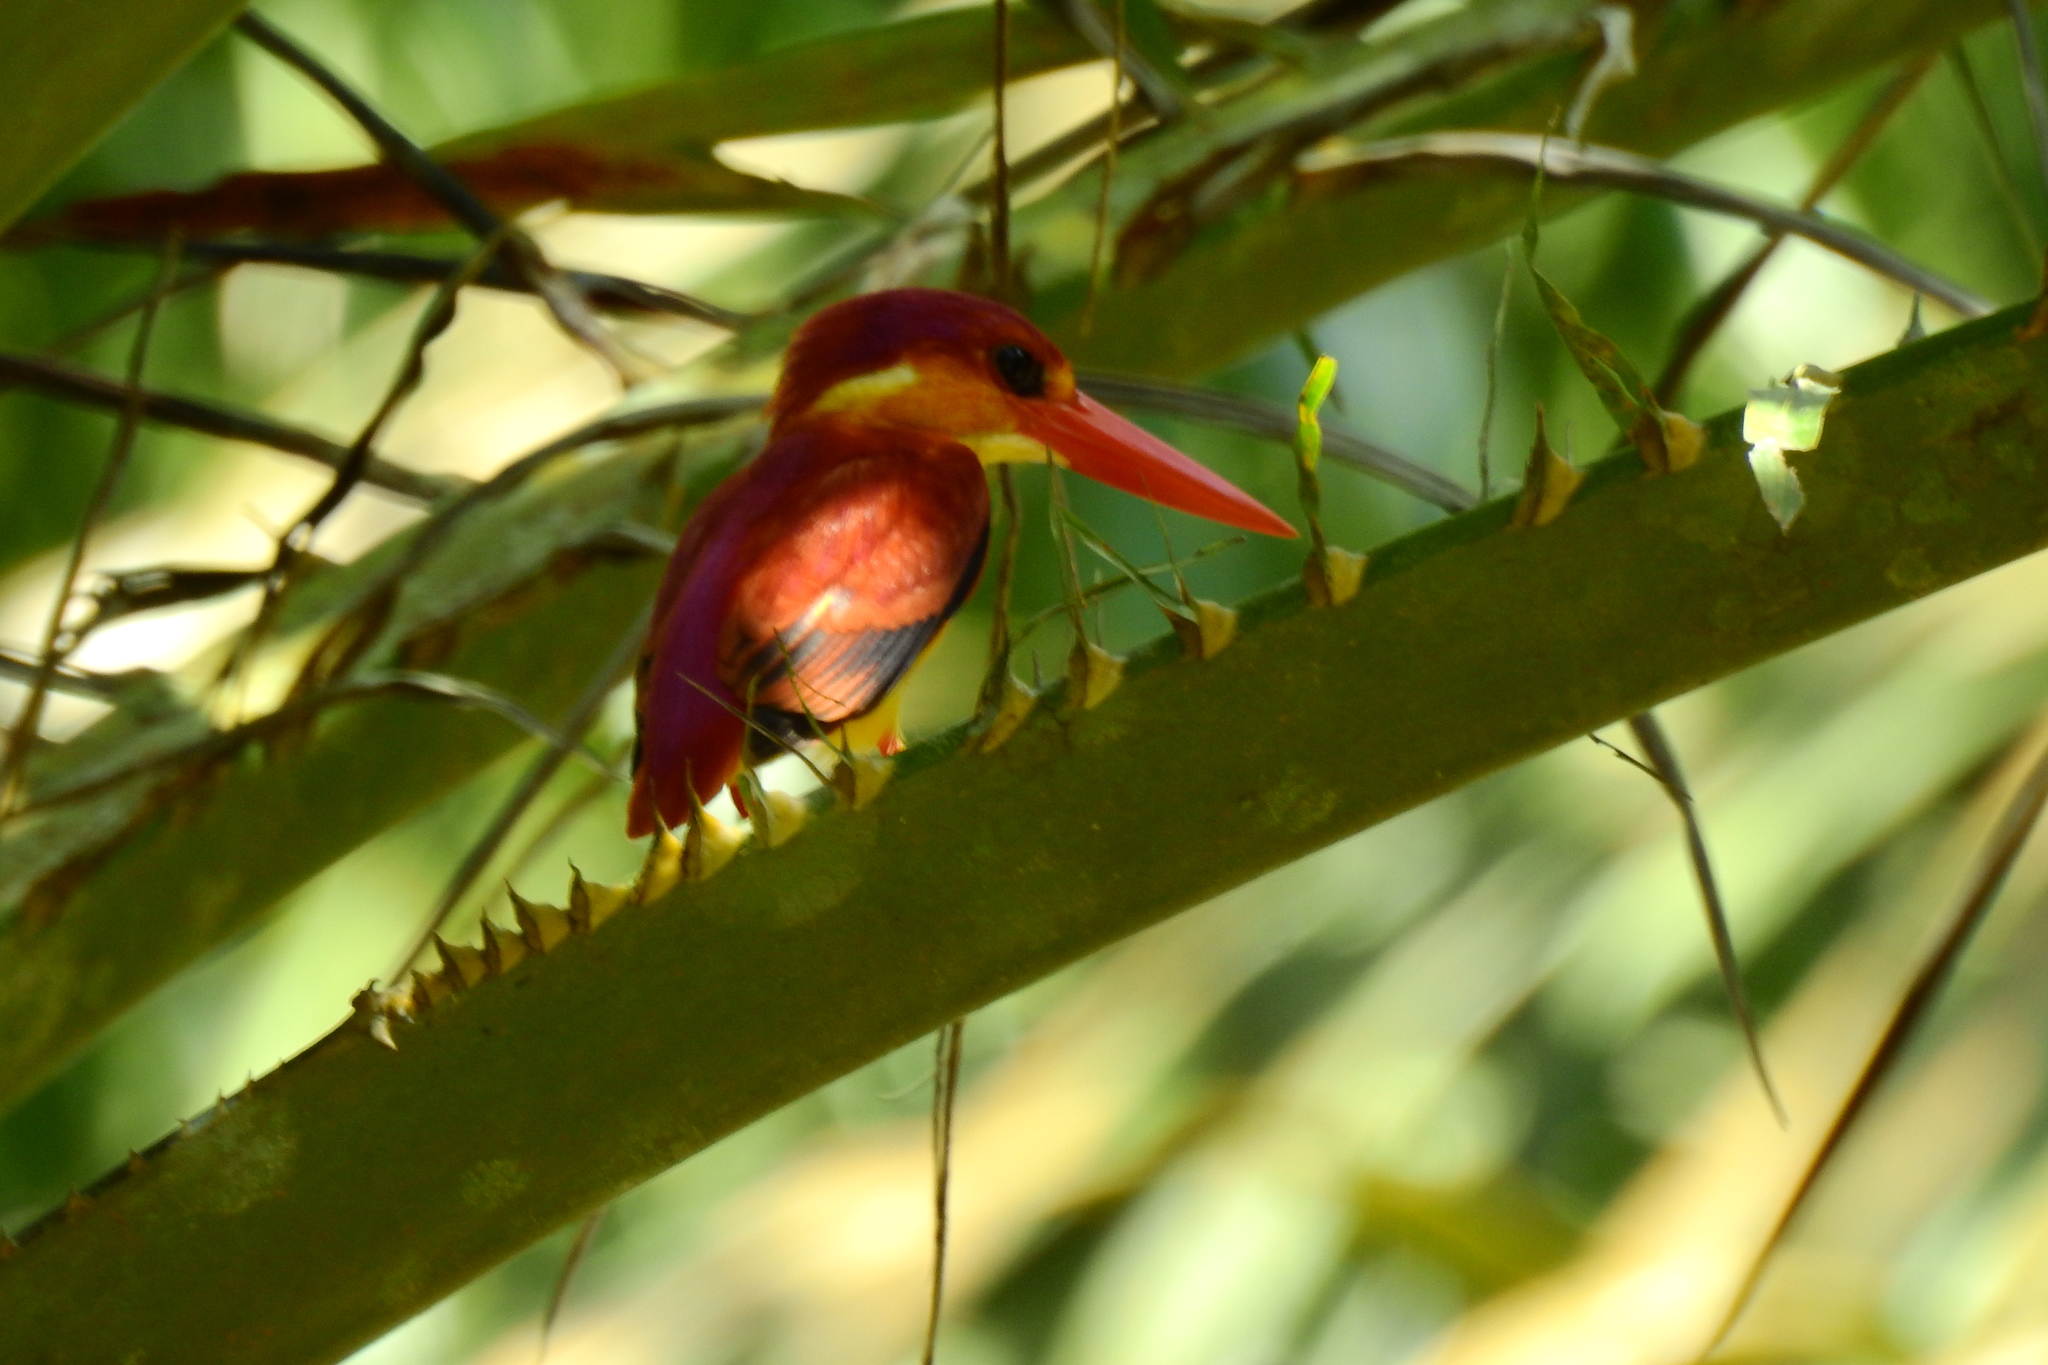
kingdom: Animalia
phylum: Chordata
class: Aves
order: Coraciiformes
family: Alcedinidae
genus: Ceyx
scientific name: Ceyx erithaca
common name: Oriental dwarf kingfisher
